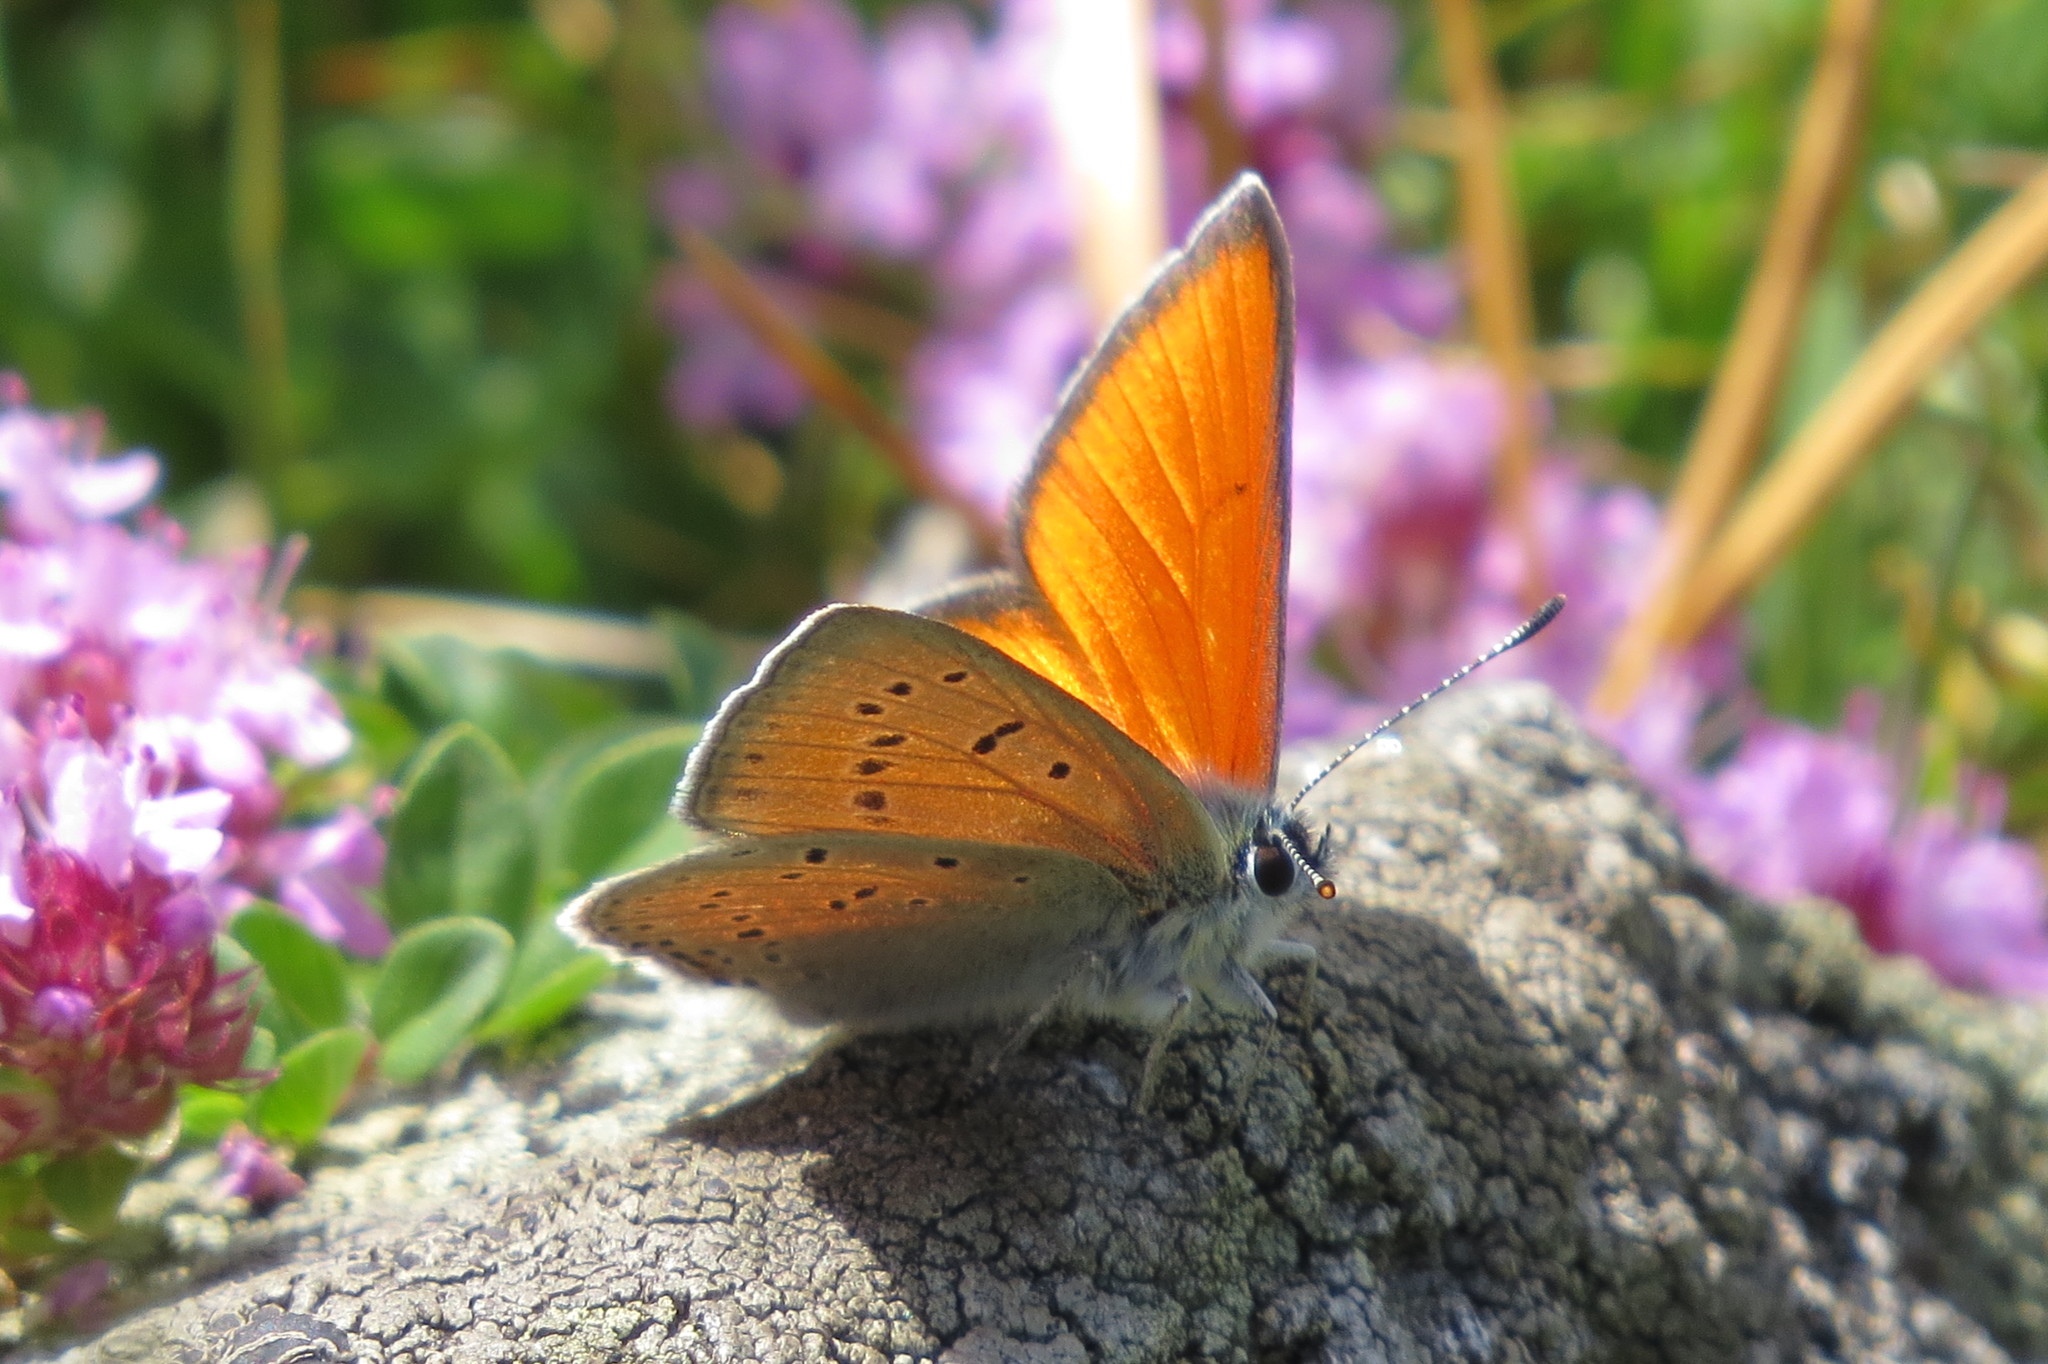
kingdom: Animalia
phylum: Arthropoda
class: Insecta
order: Lepidoptera
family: Lycaenidae
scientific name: Lycaenidae
